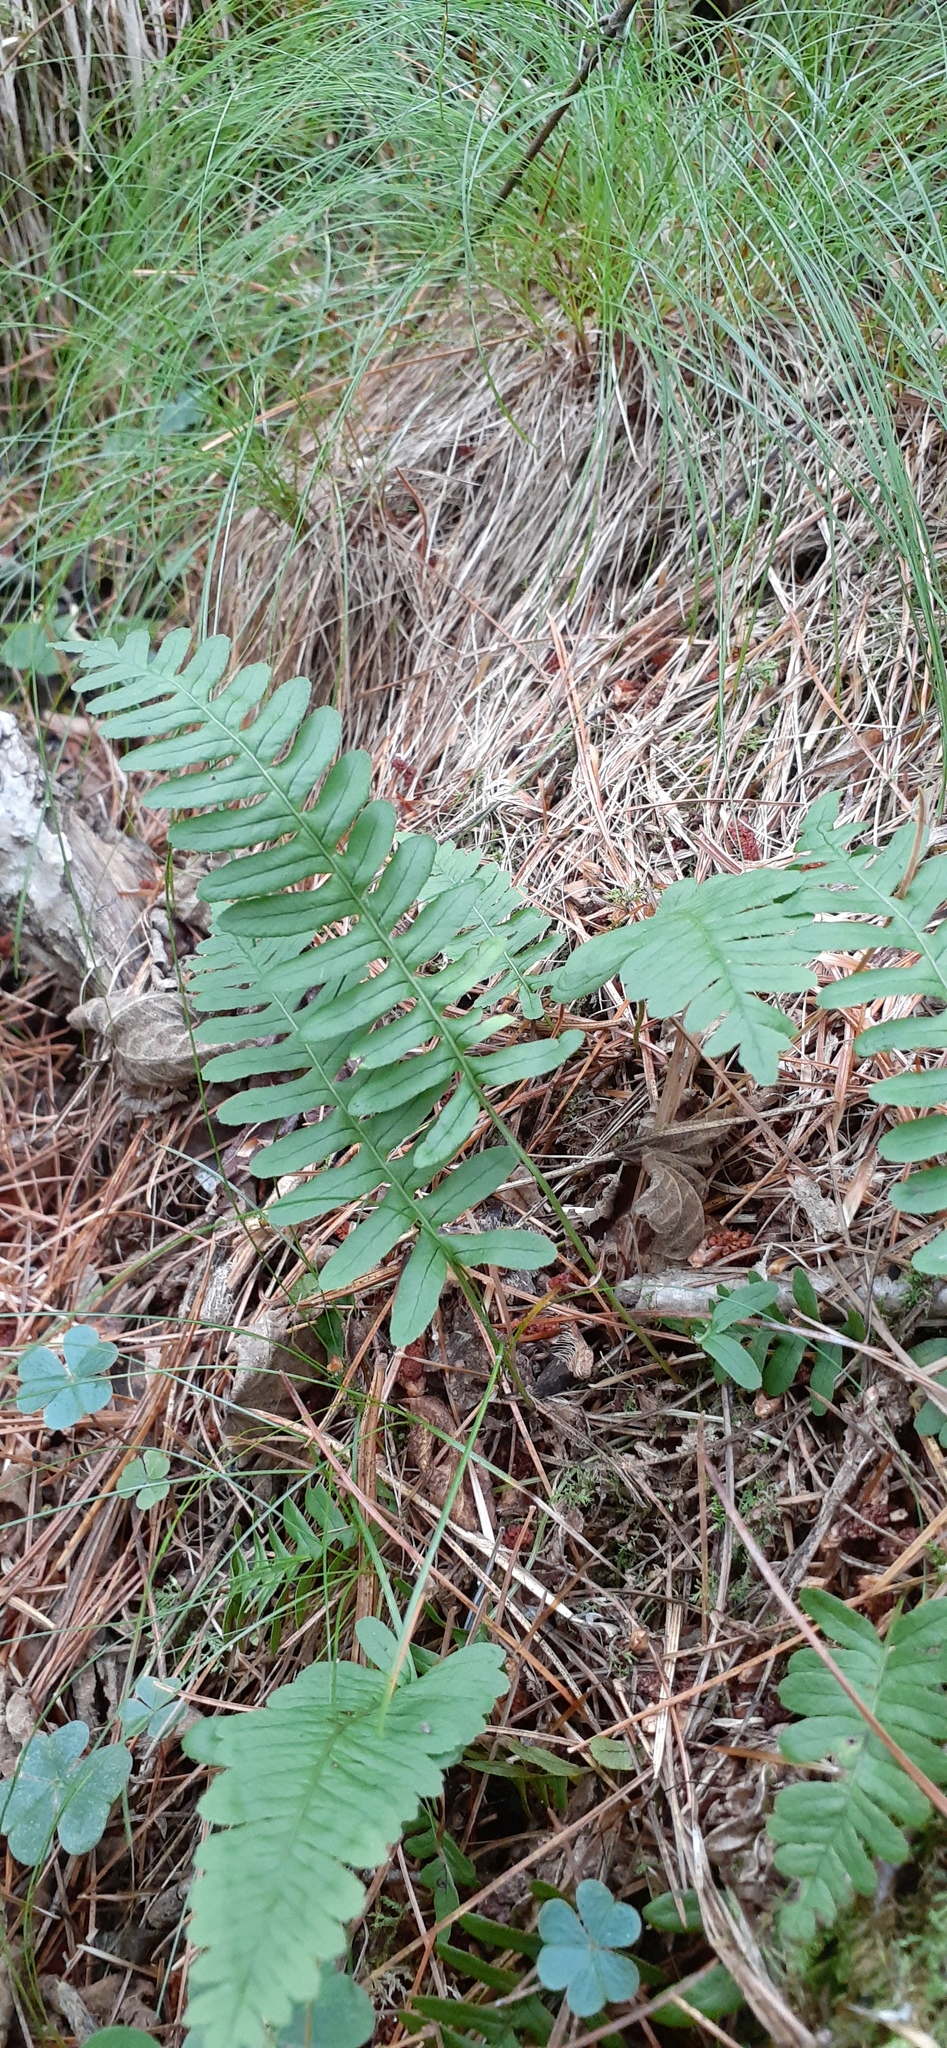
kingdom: Plantae
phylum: Tracheophyta
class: Polypodiopsida
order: Polypodiales
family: Polypodiaceae
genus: Polypodium
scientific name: Polypodium sibiricum
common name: Siberian polypody
